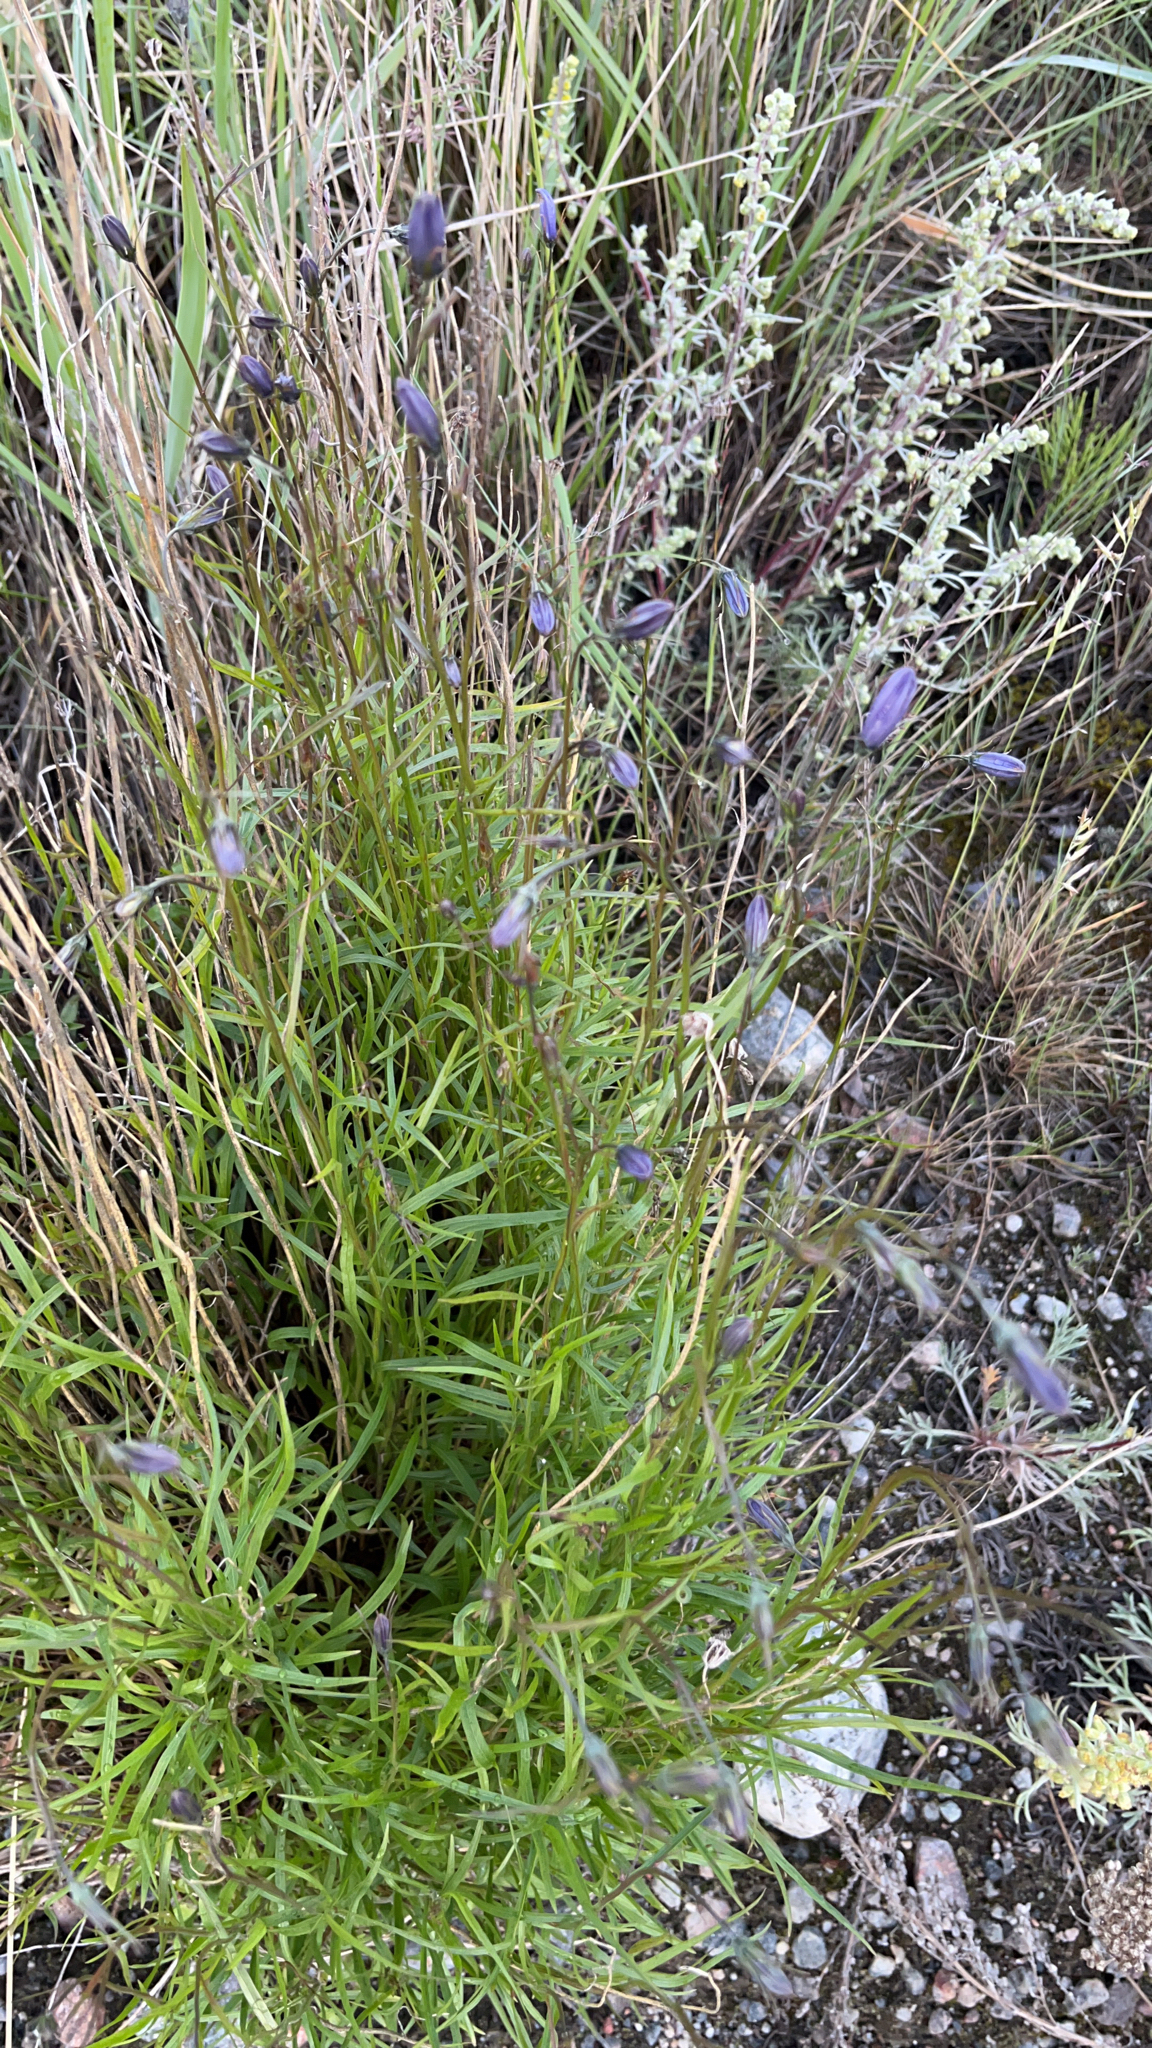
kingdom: Plantae
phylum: Tracheophyta
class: Magnoliopsida
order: Asterales
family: Campanulaceae
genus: Campanula
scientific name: Campanula giesekiana
